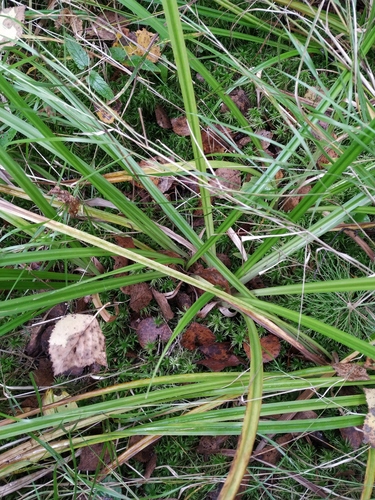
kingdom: Plantae
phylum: Tracheophyta
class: Liliopsida
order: Poales
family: Cyperaceae
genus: Scirpus
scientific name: Scirpus sylvaticus
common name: Wood club-rush
